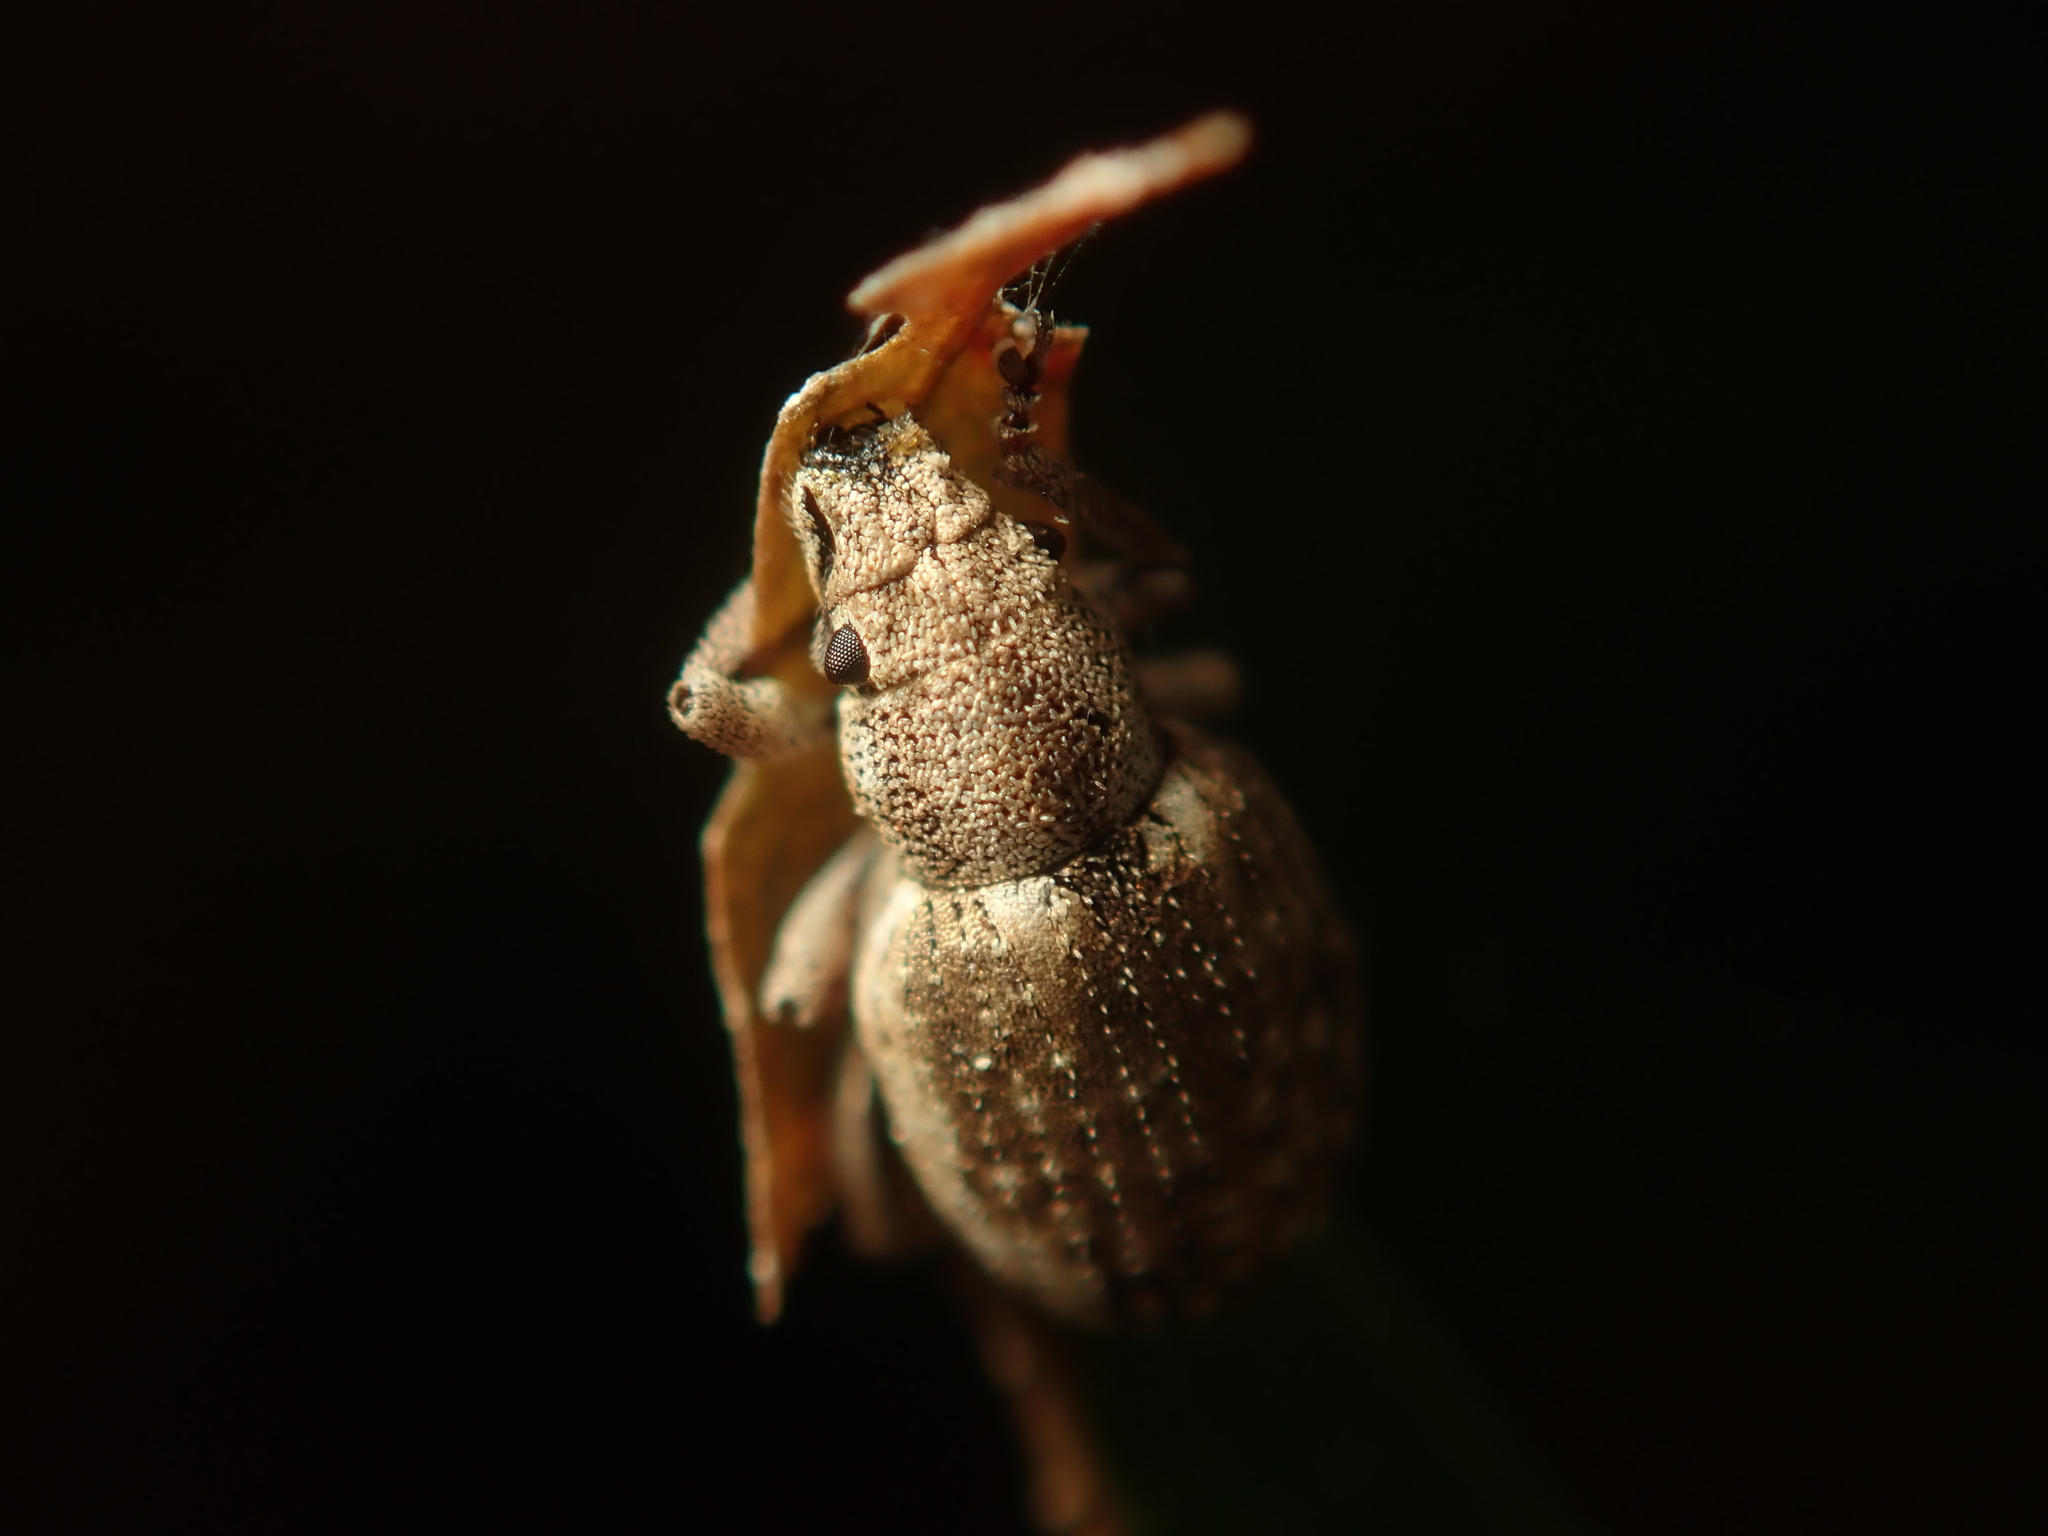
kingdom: Animalia
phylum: Arthropoda
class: Insecta
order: Coleoptera
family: Curculionidae
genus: Strophosoma
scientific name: Strophosoma capitatum
